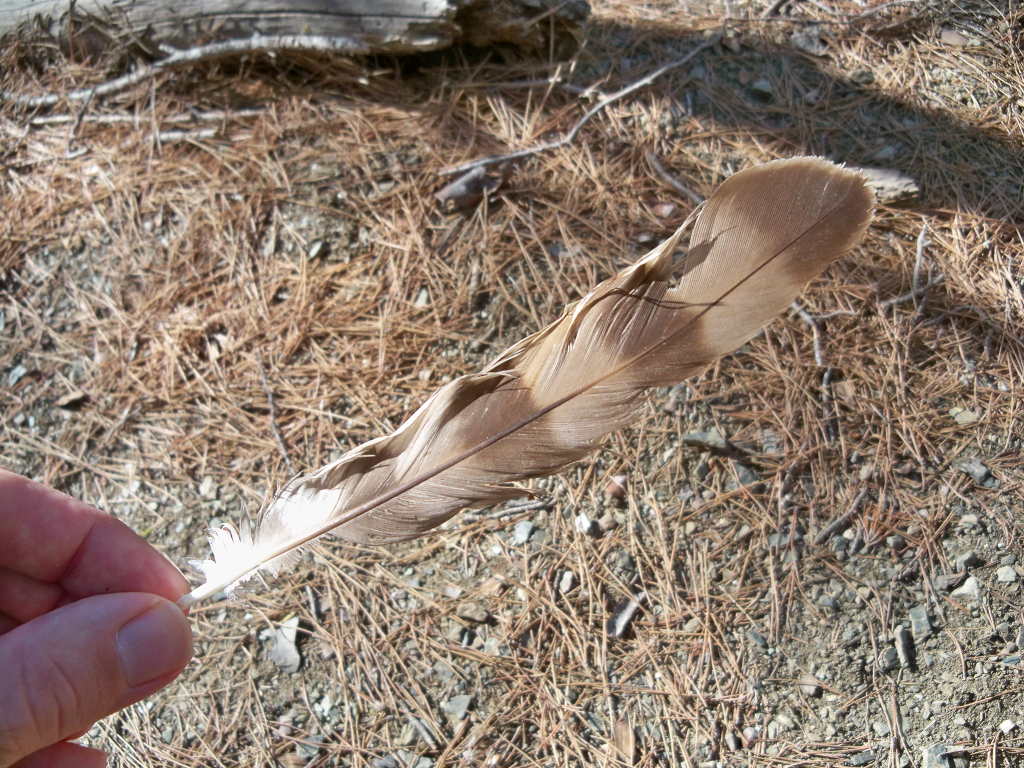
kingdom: Animalia
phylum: Chordata
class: Aves
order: Accipitriformes
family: Accipitridae
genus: Accipiter
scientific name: Accipiter nisus
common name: Eurasian sparrowhawk
